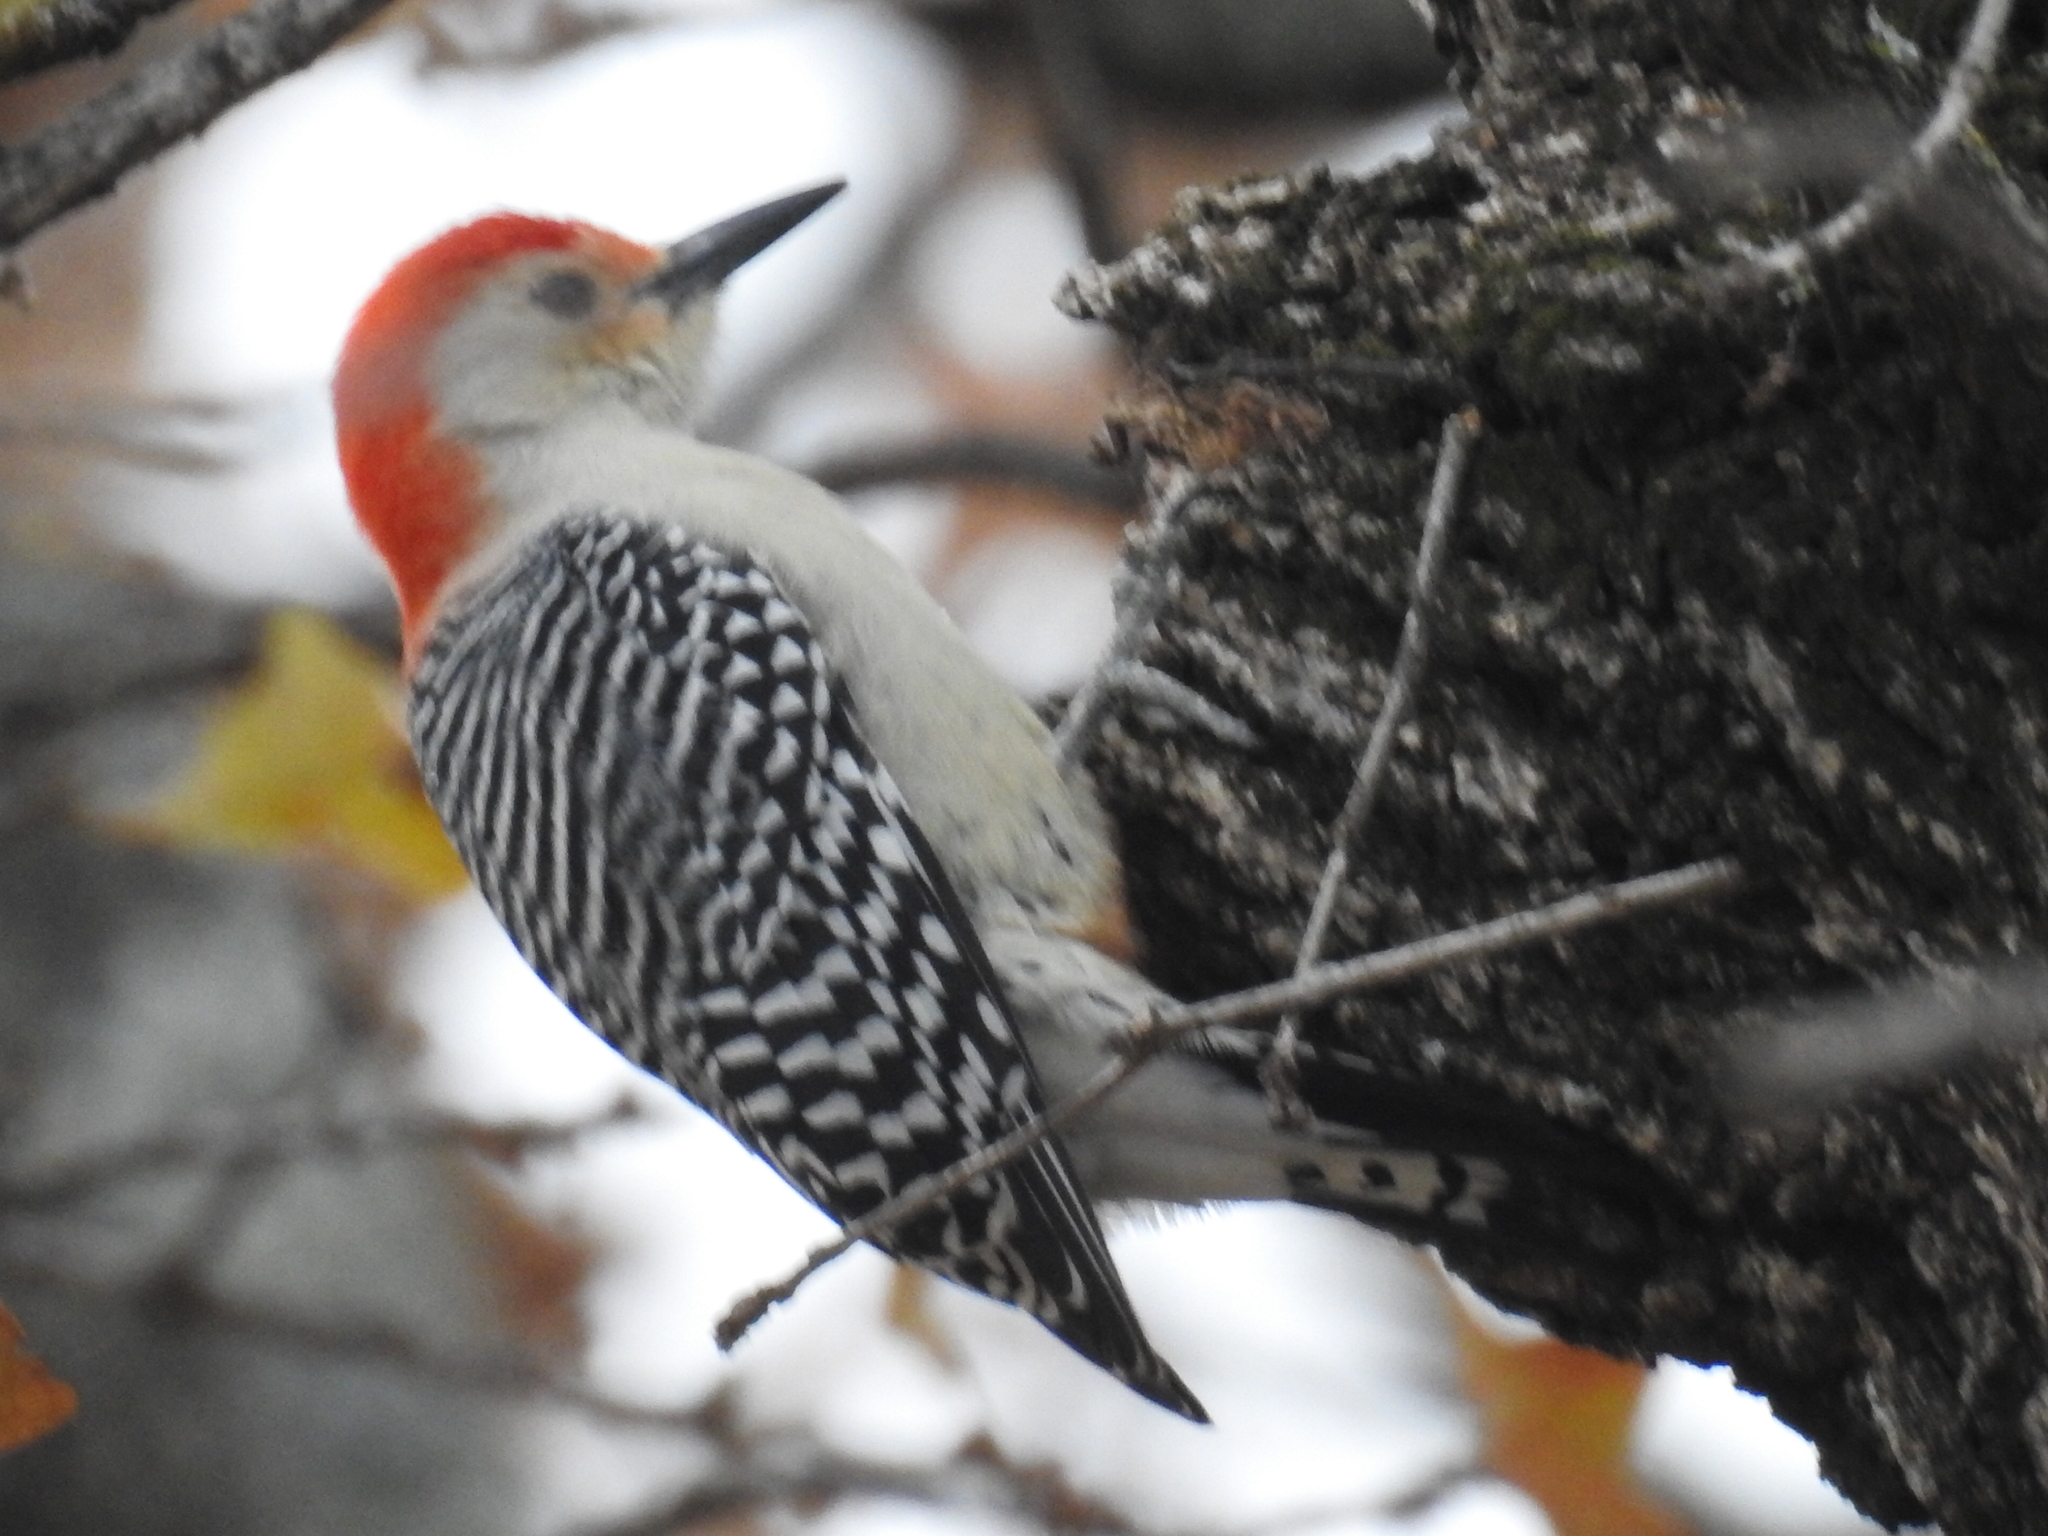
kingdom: Animalia
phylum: Chordata
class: Aves
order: Piciformes
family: Picidae
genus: Melanerpes
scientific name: Melanerpes carolinus
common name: Red-bellied woodpecker
